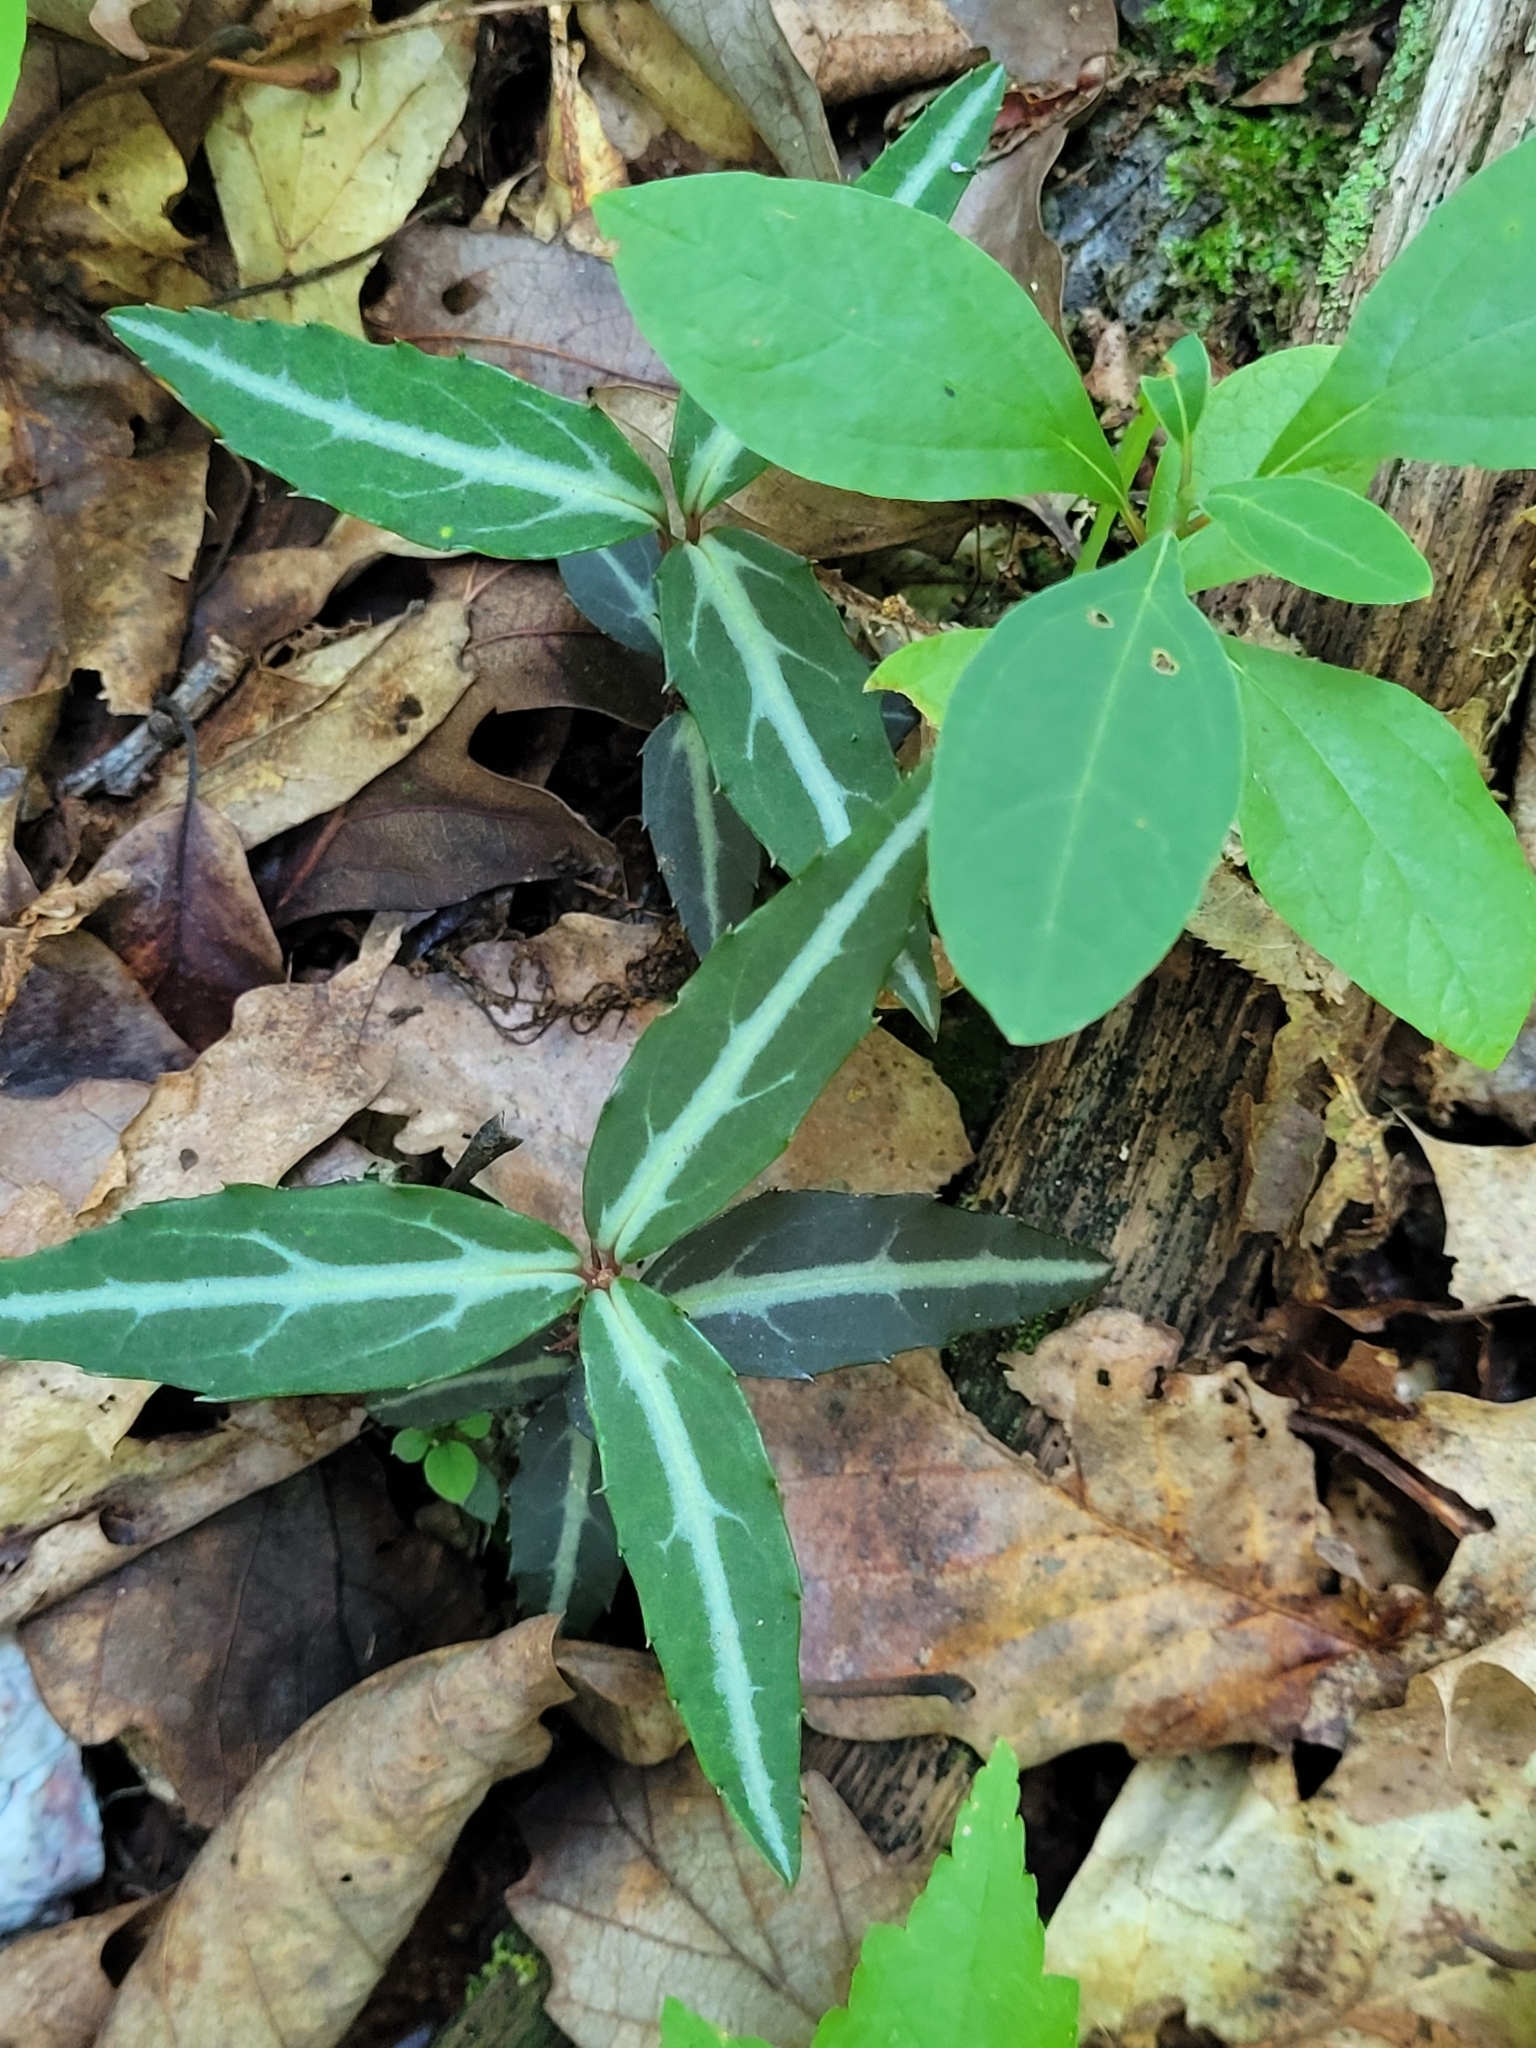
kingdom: Plantae
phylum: Tracheophyta
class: Magnoliopsida
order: Ericales
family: Ericaceae
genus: Chimaphila
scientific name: Chimaphila maculata
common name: Spotted pipsissewa
